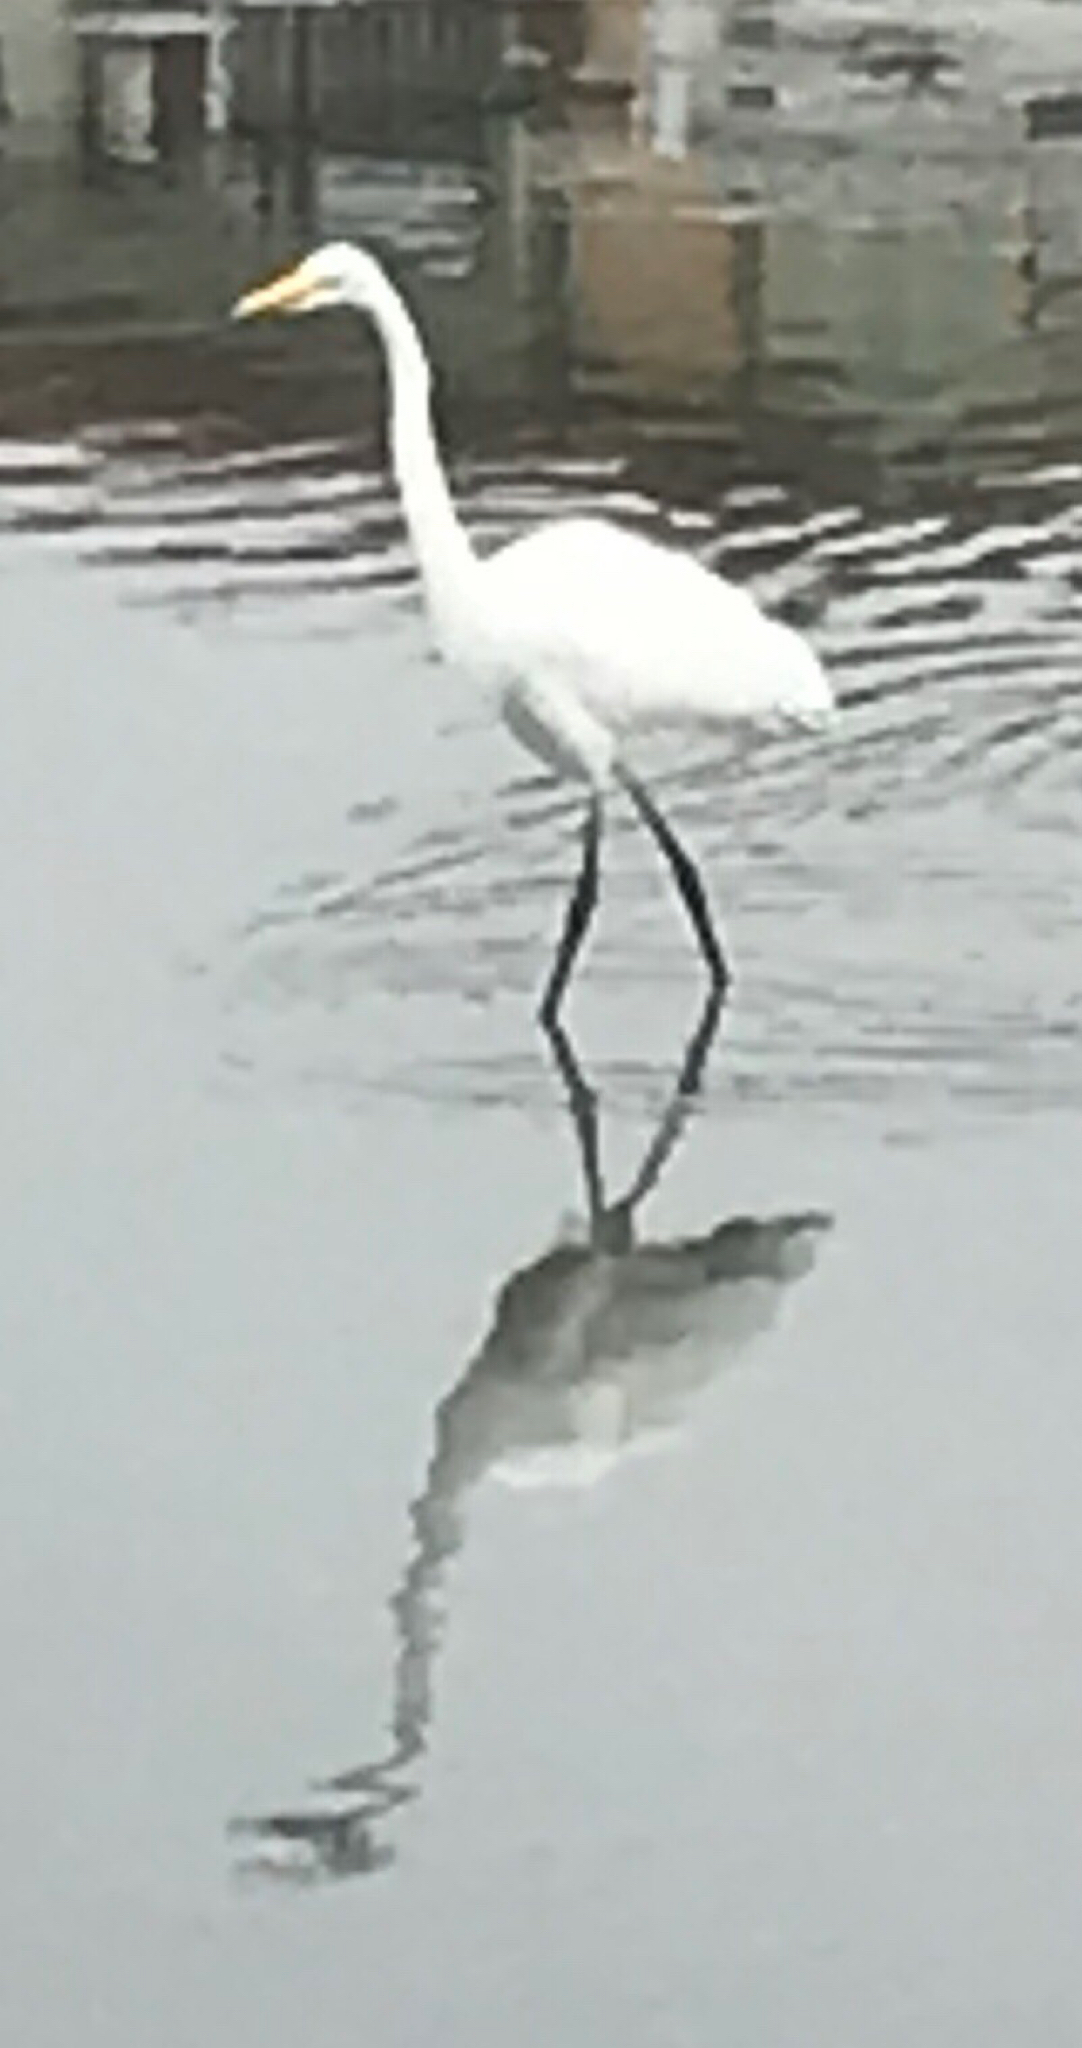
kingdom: Animalia
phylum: Chordata
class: Aves
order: Pelecaniformes
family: Ardeidae
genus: Ardea
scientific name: Ardea alba
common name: Great egret
